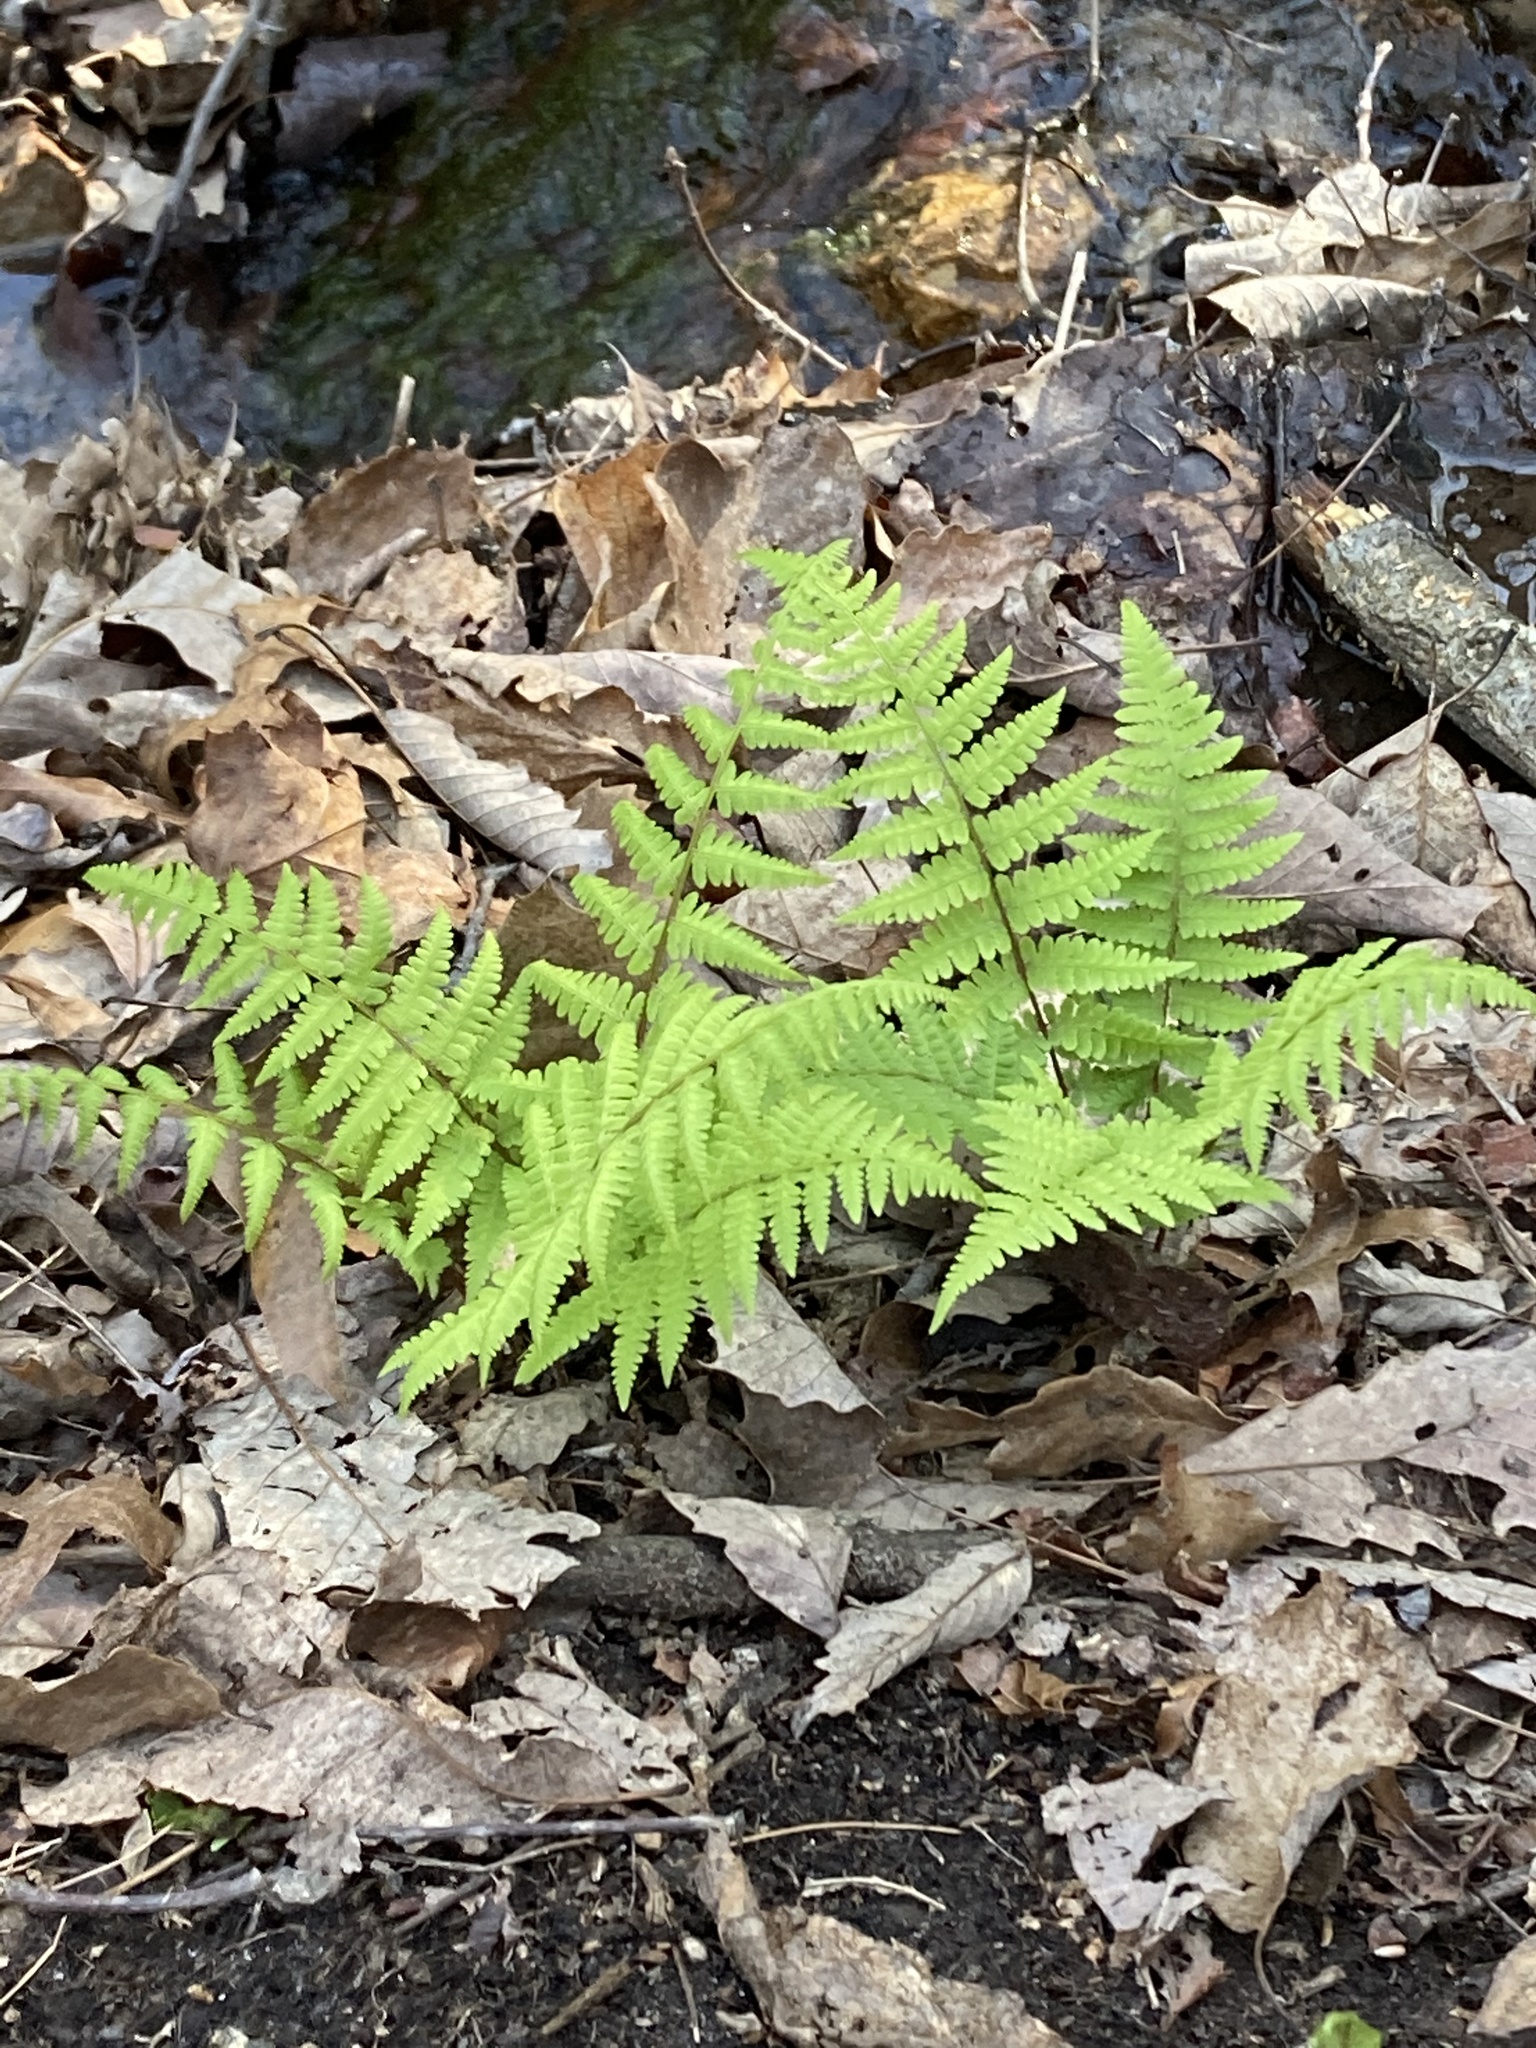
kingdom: Plantae
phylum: Tracheophyta
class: Polypodiopsida
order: Polypodiales
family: Athyriaceae
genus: Athyrium
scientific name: Athyrium asplenioides
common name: Southern lady fern
